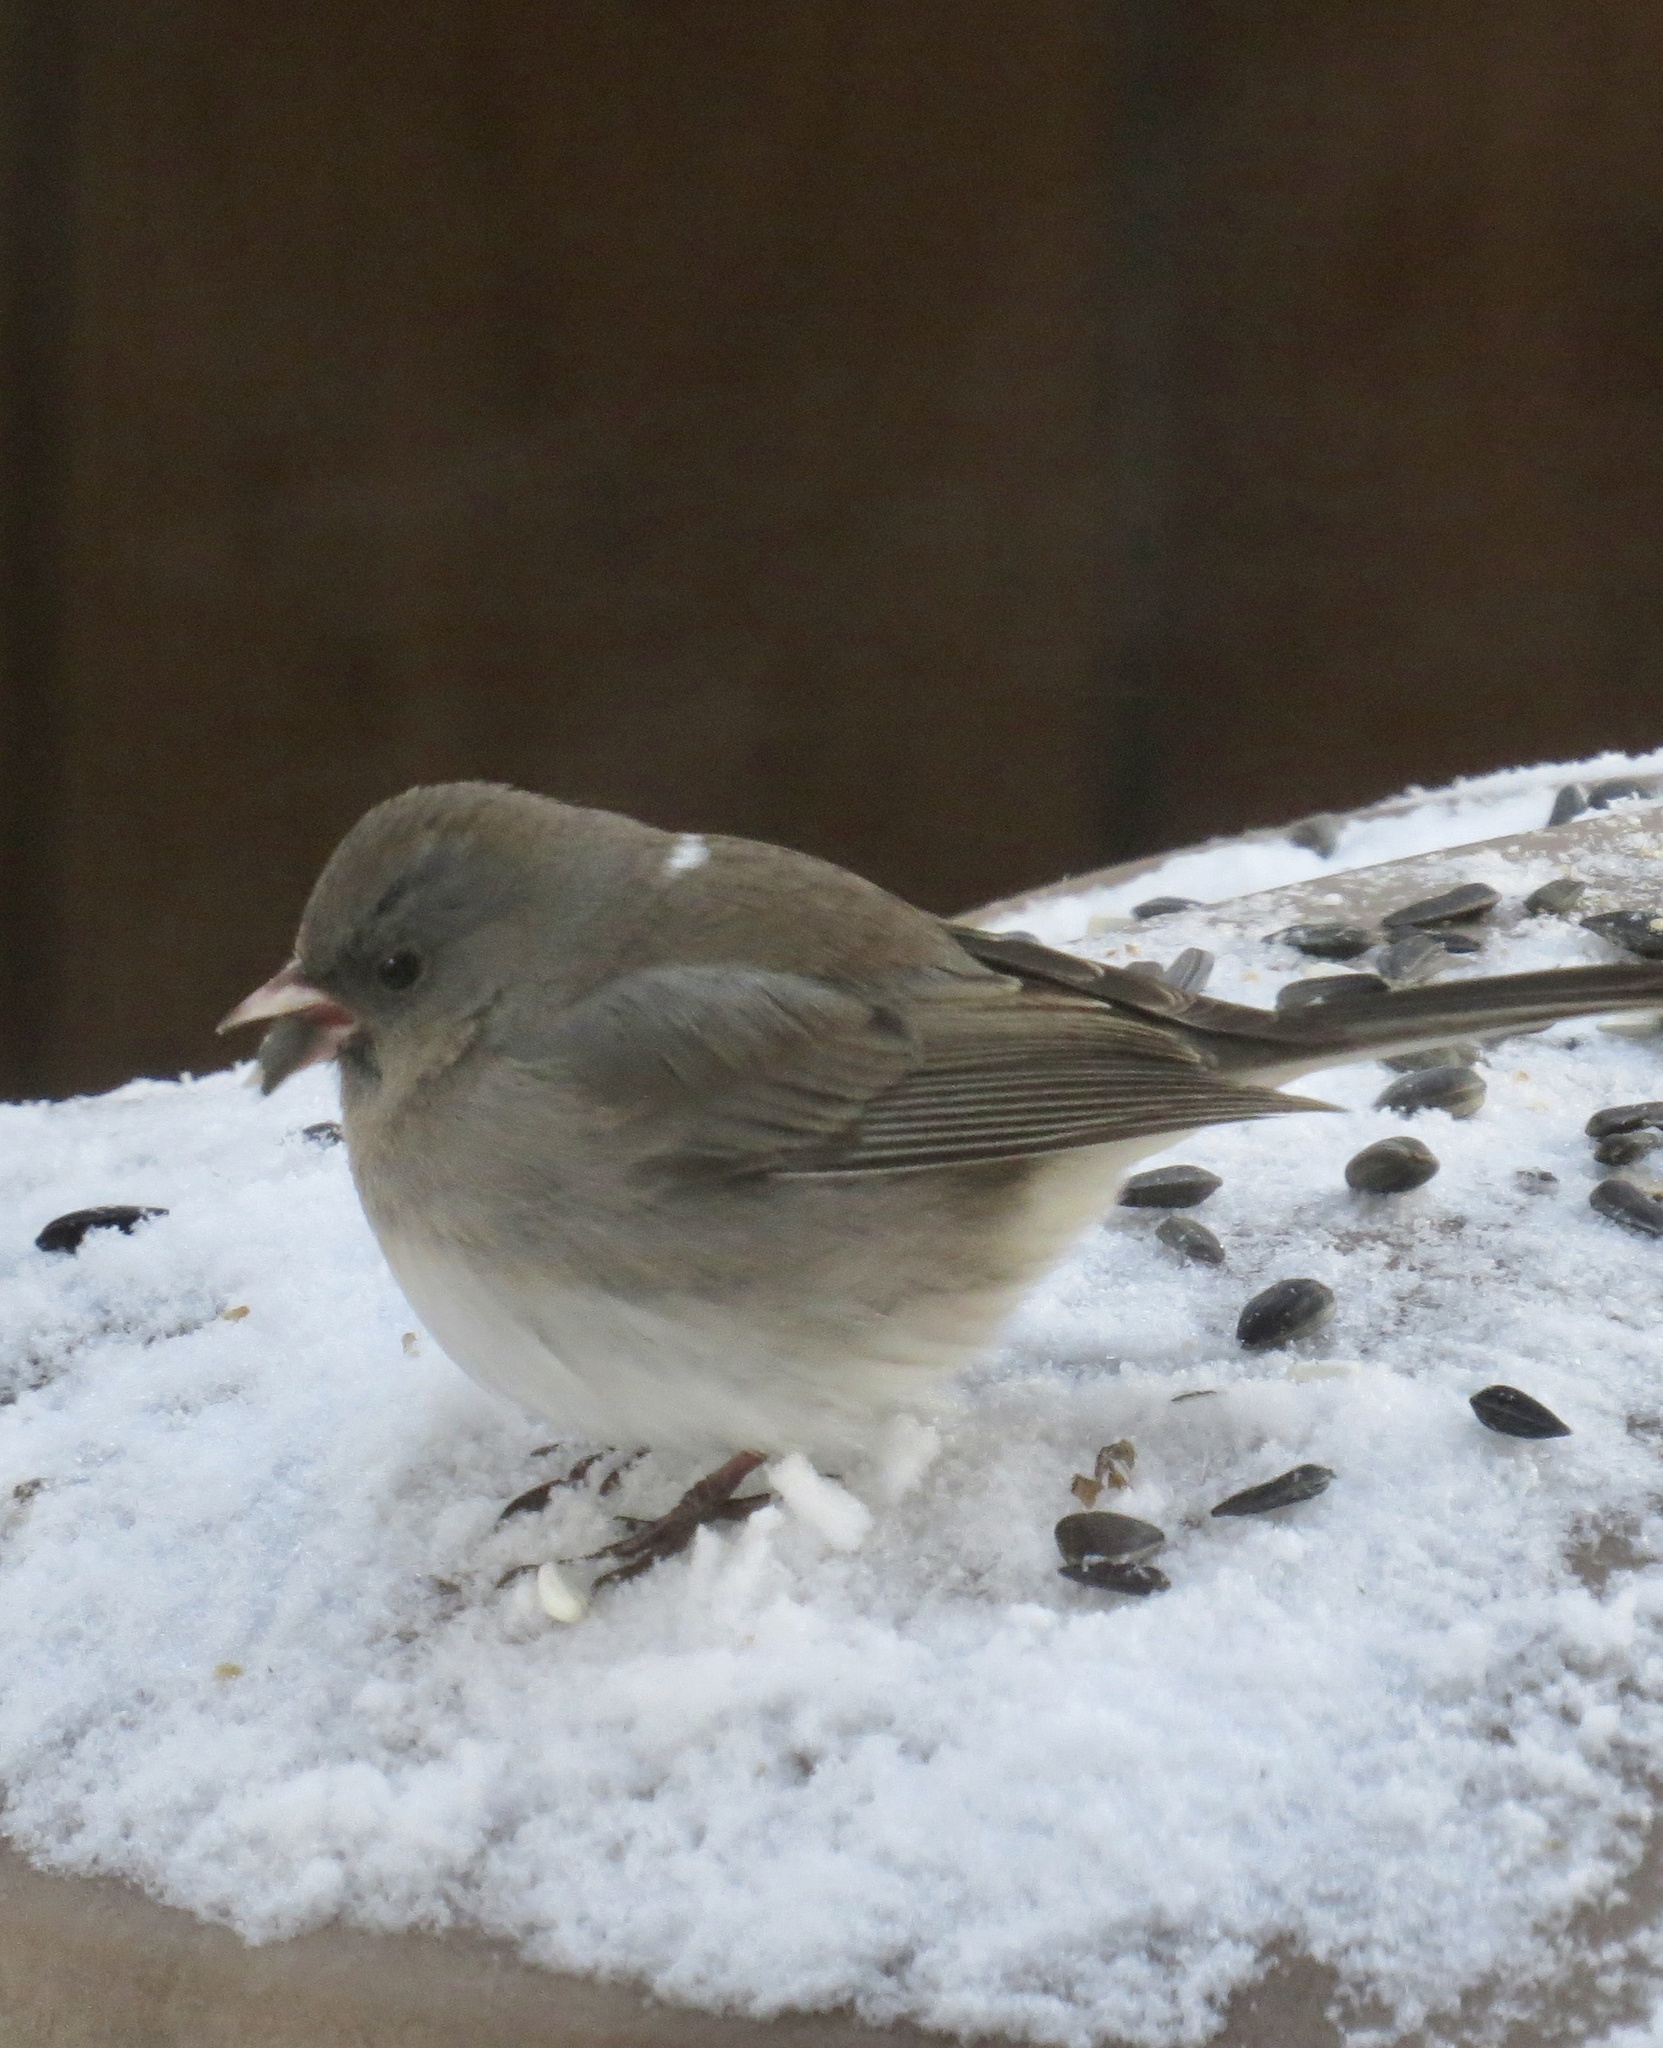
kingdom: Animalia
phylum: Chordata
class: Aves
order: Passeriformes
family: Passerellidae
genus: Junco
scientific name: Junco hyemalis
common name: Dark-eyed junco
